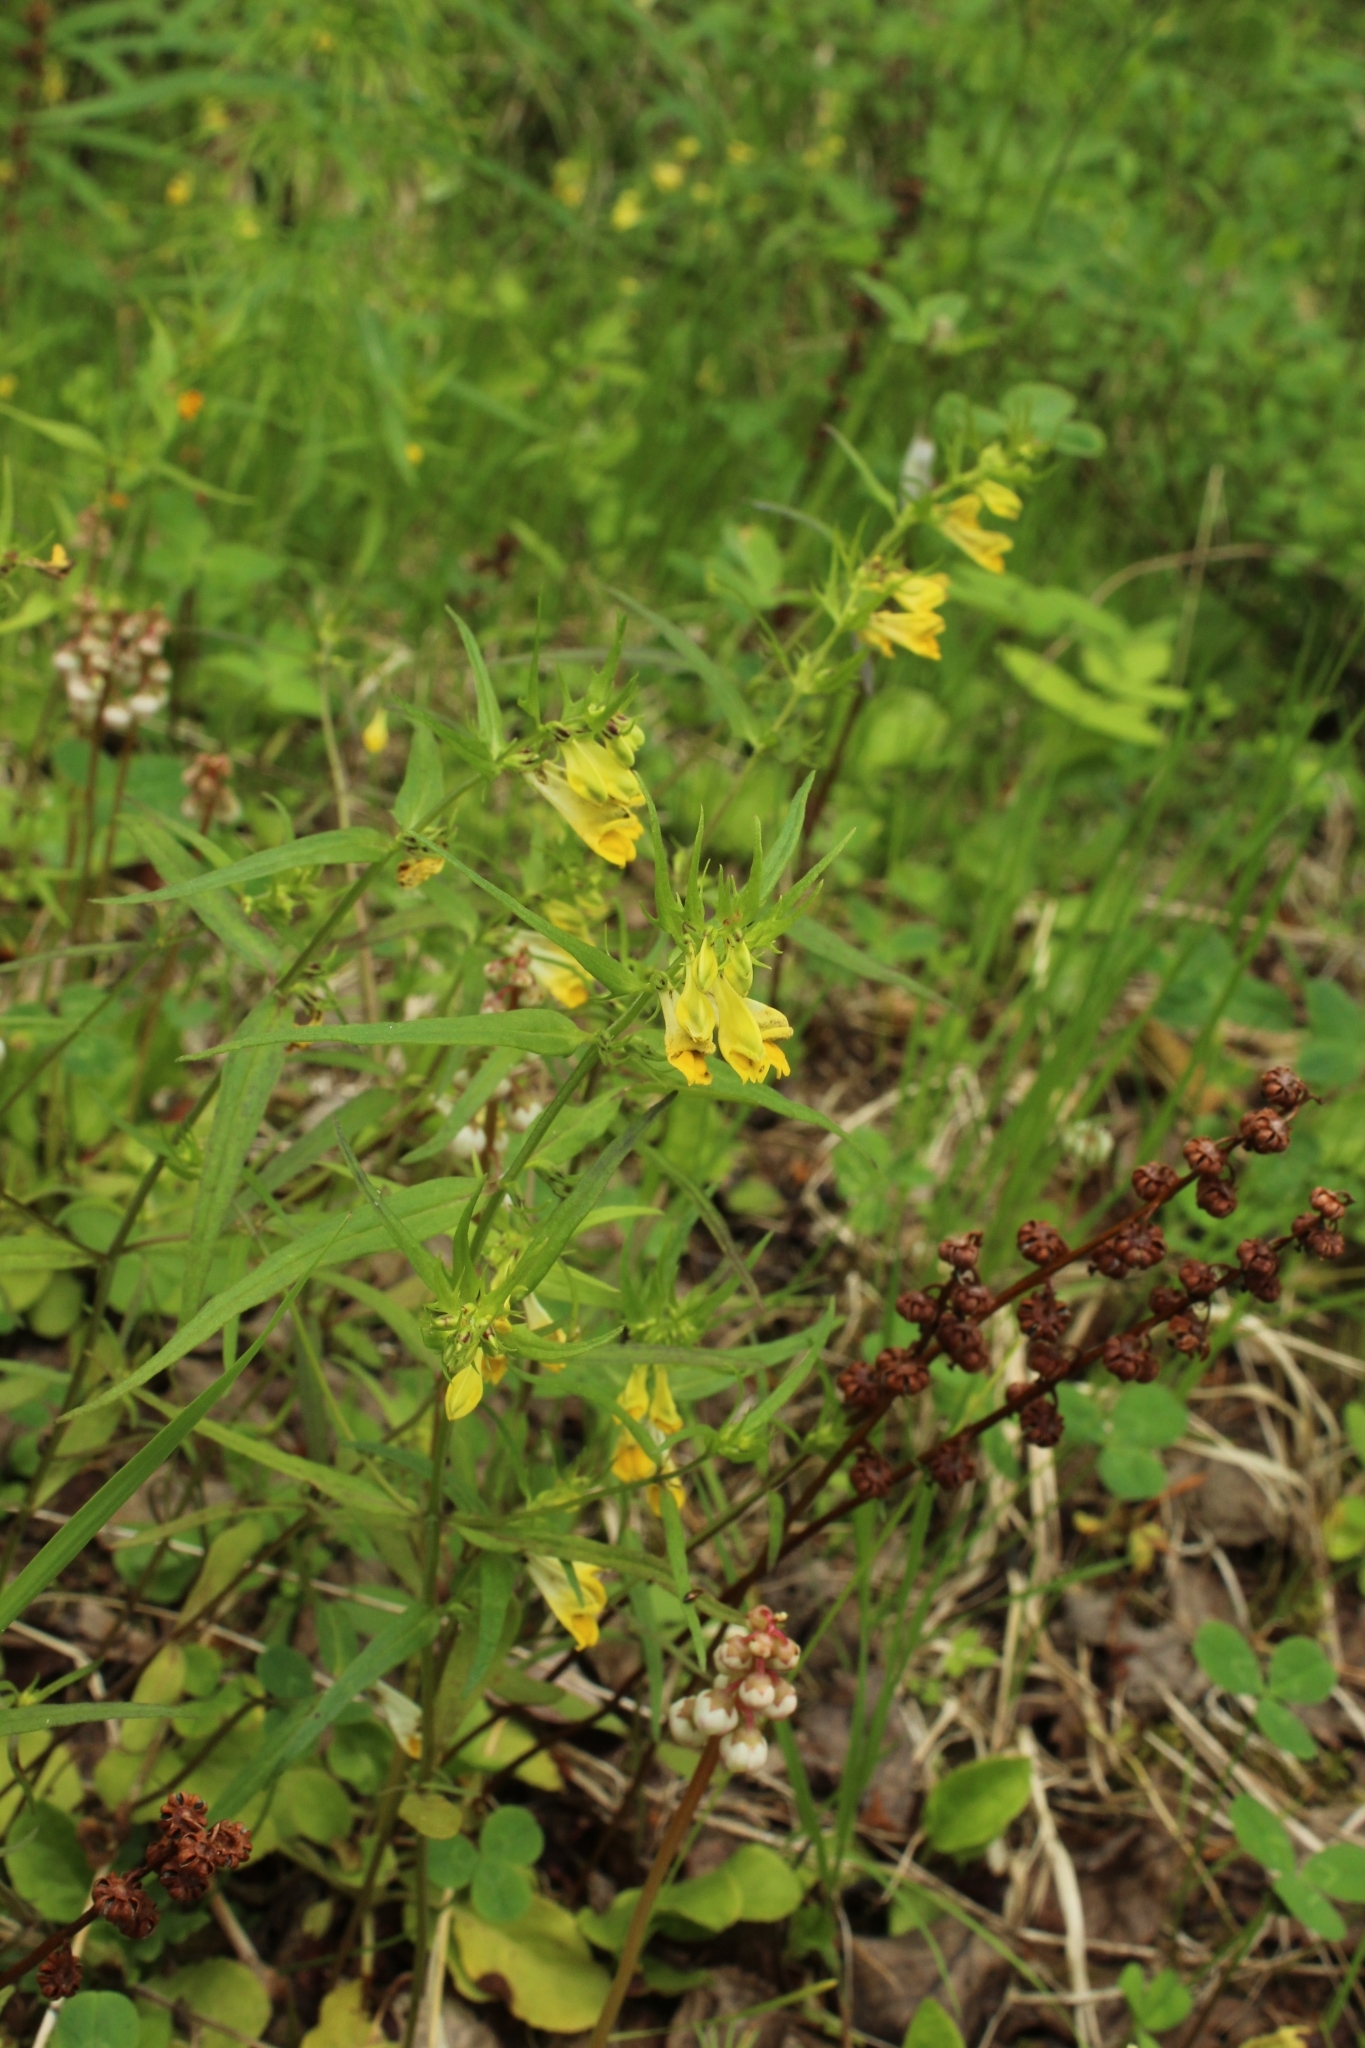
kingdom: Plantae
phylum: Tracheophyta
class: Magnoliopsida
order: Lamiales
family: Orobanchaceae
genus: Melampyrum
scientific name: Melampyrum pratense
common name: Common cow-wheat
